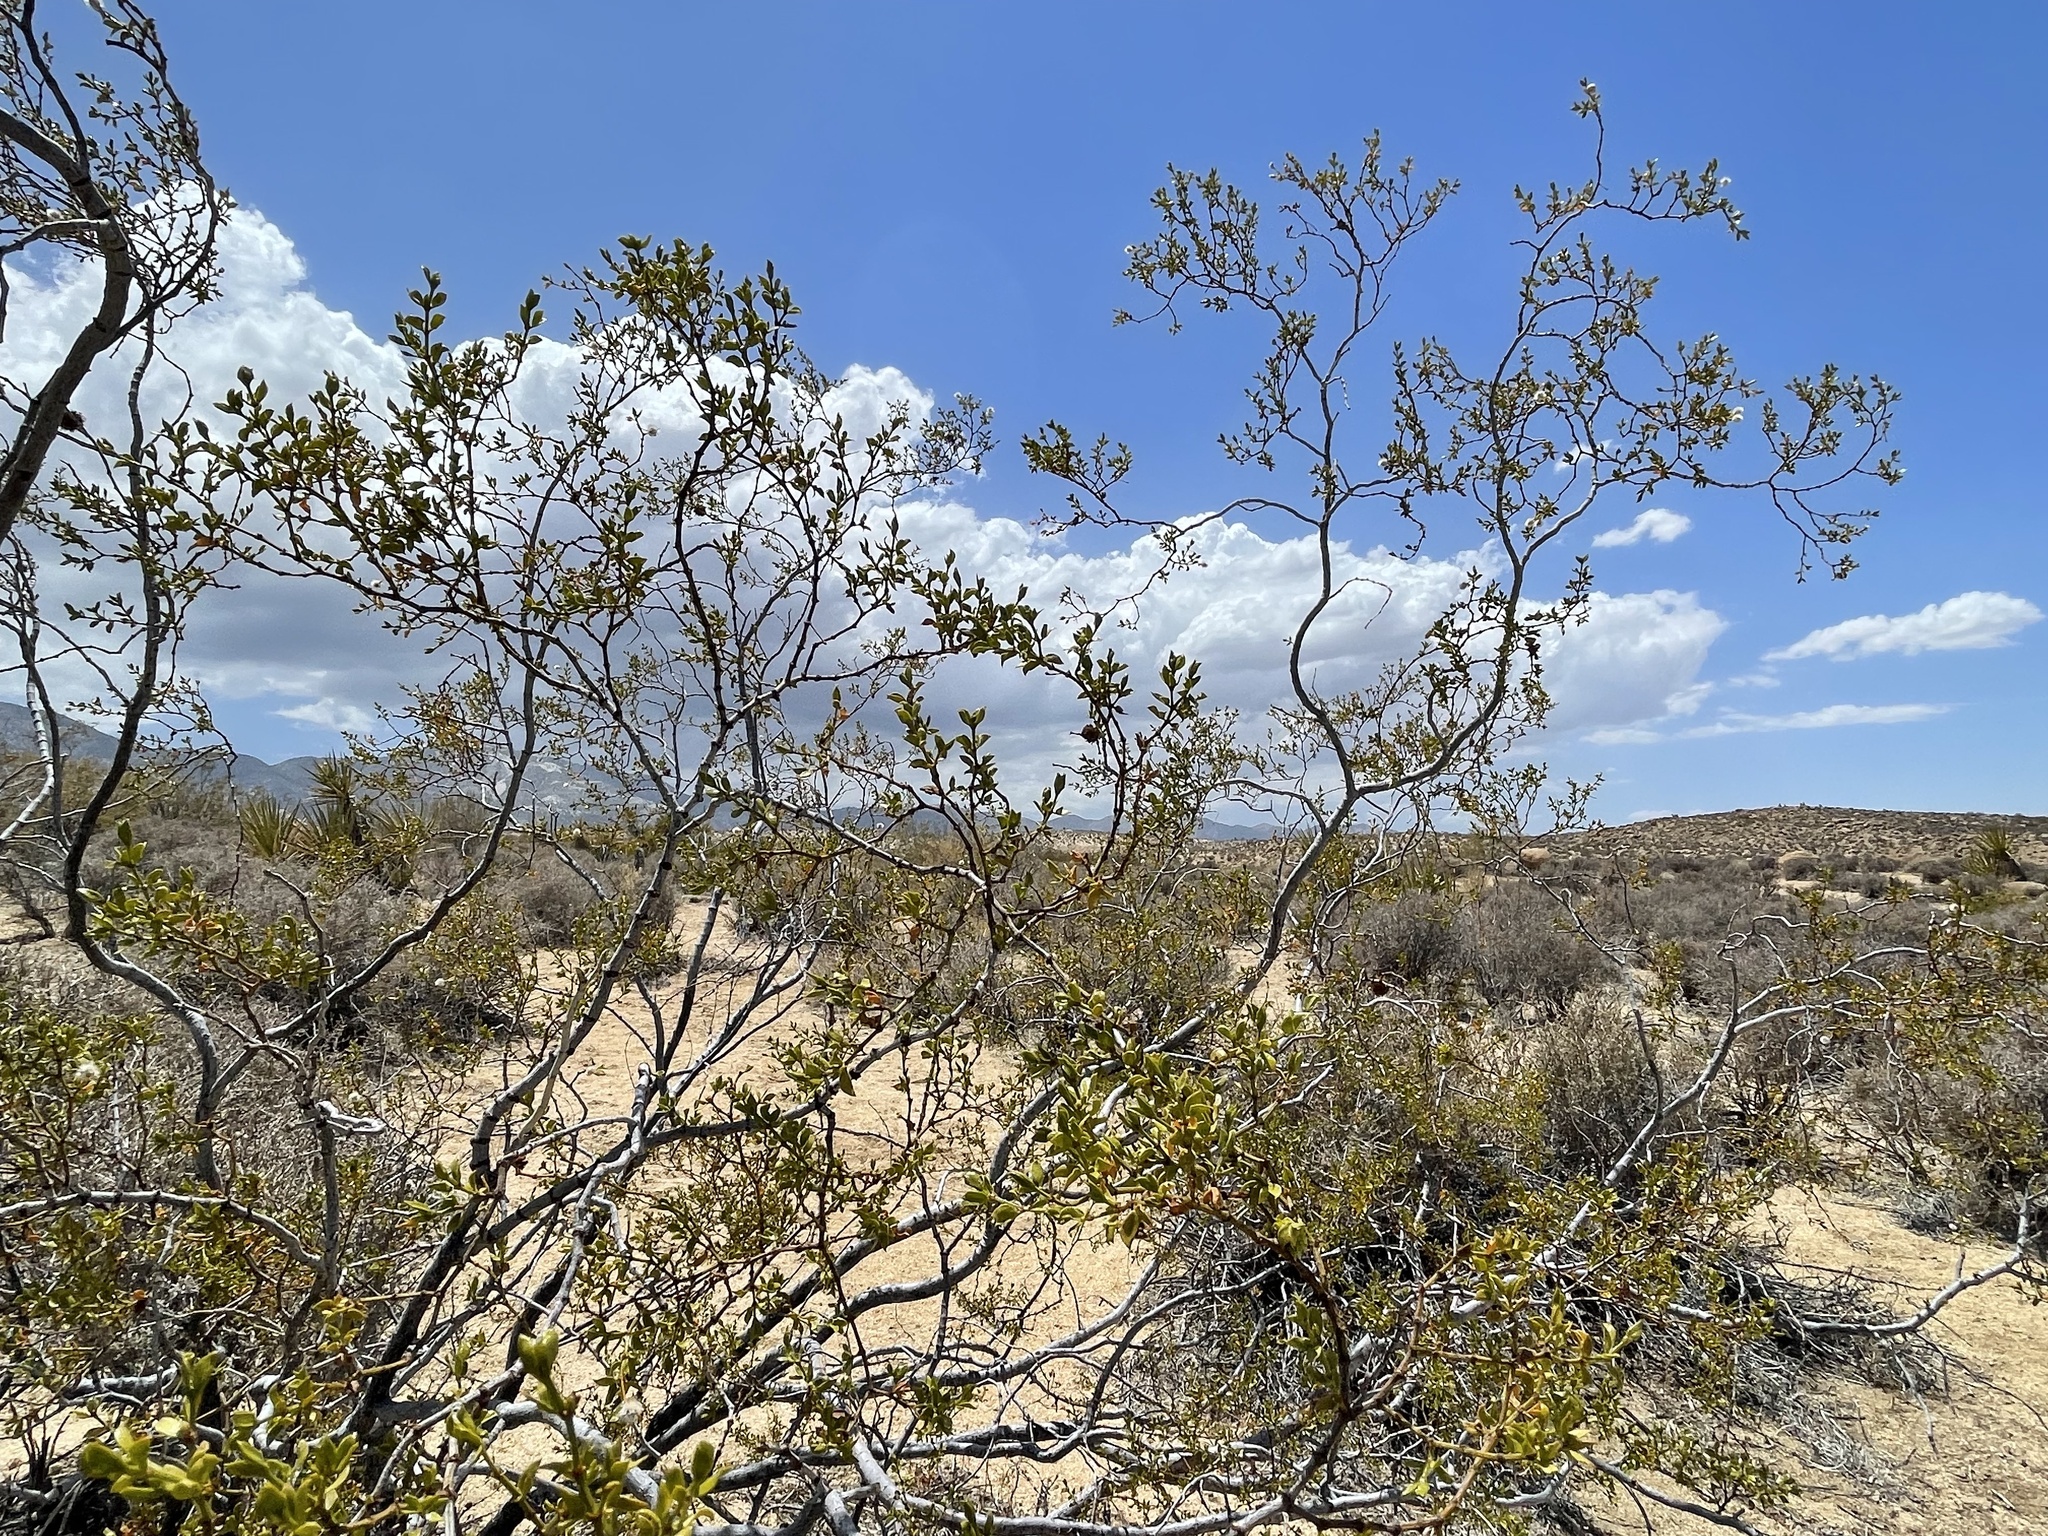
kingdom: Plantae
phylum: Tracheophyta
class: Magnoliopsida
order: Zygophyllales
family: Zygophyllaceae
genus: Larrea
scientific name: Larrea tridentata
